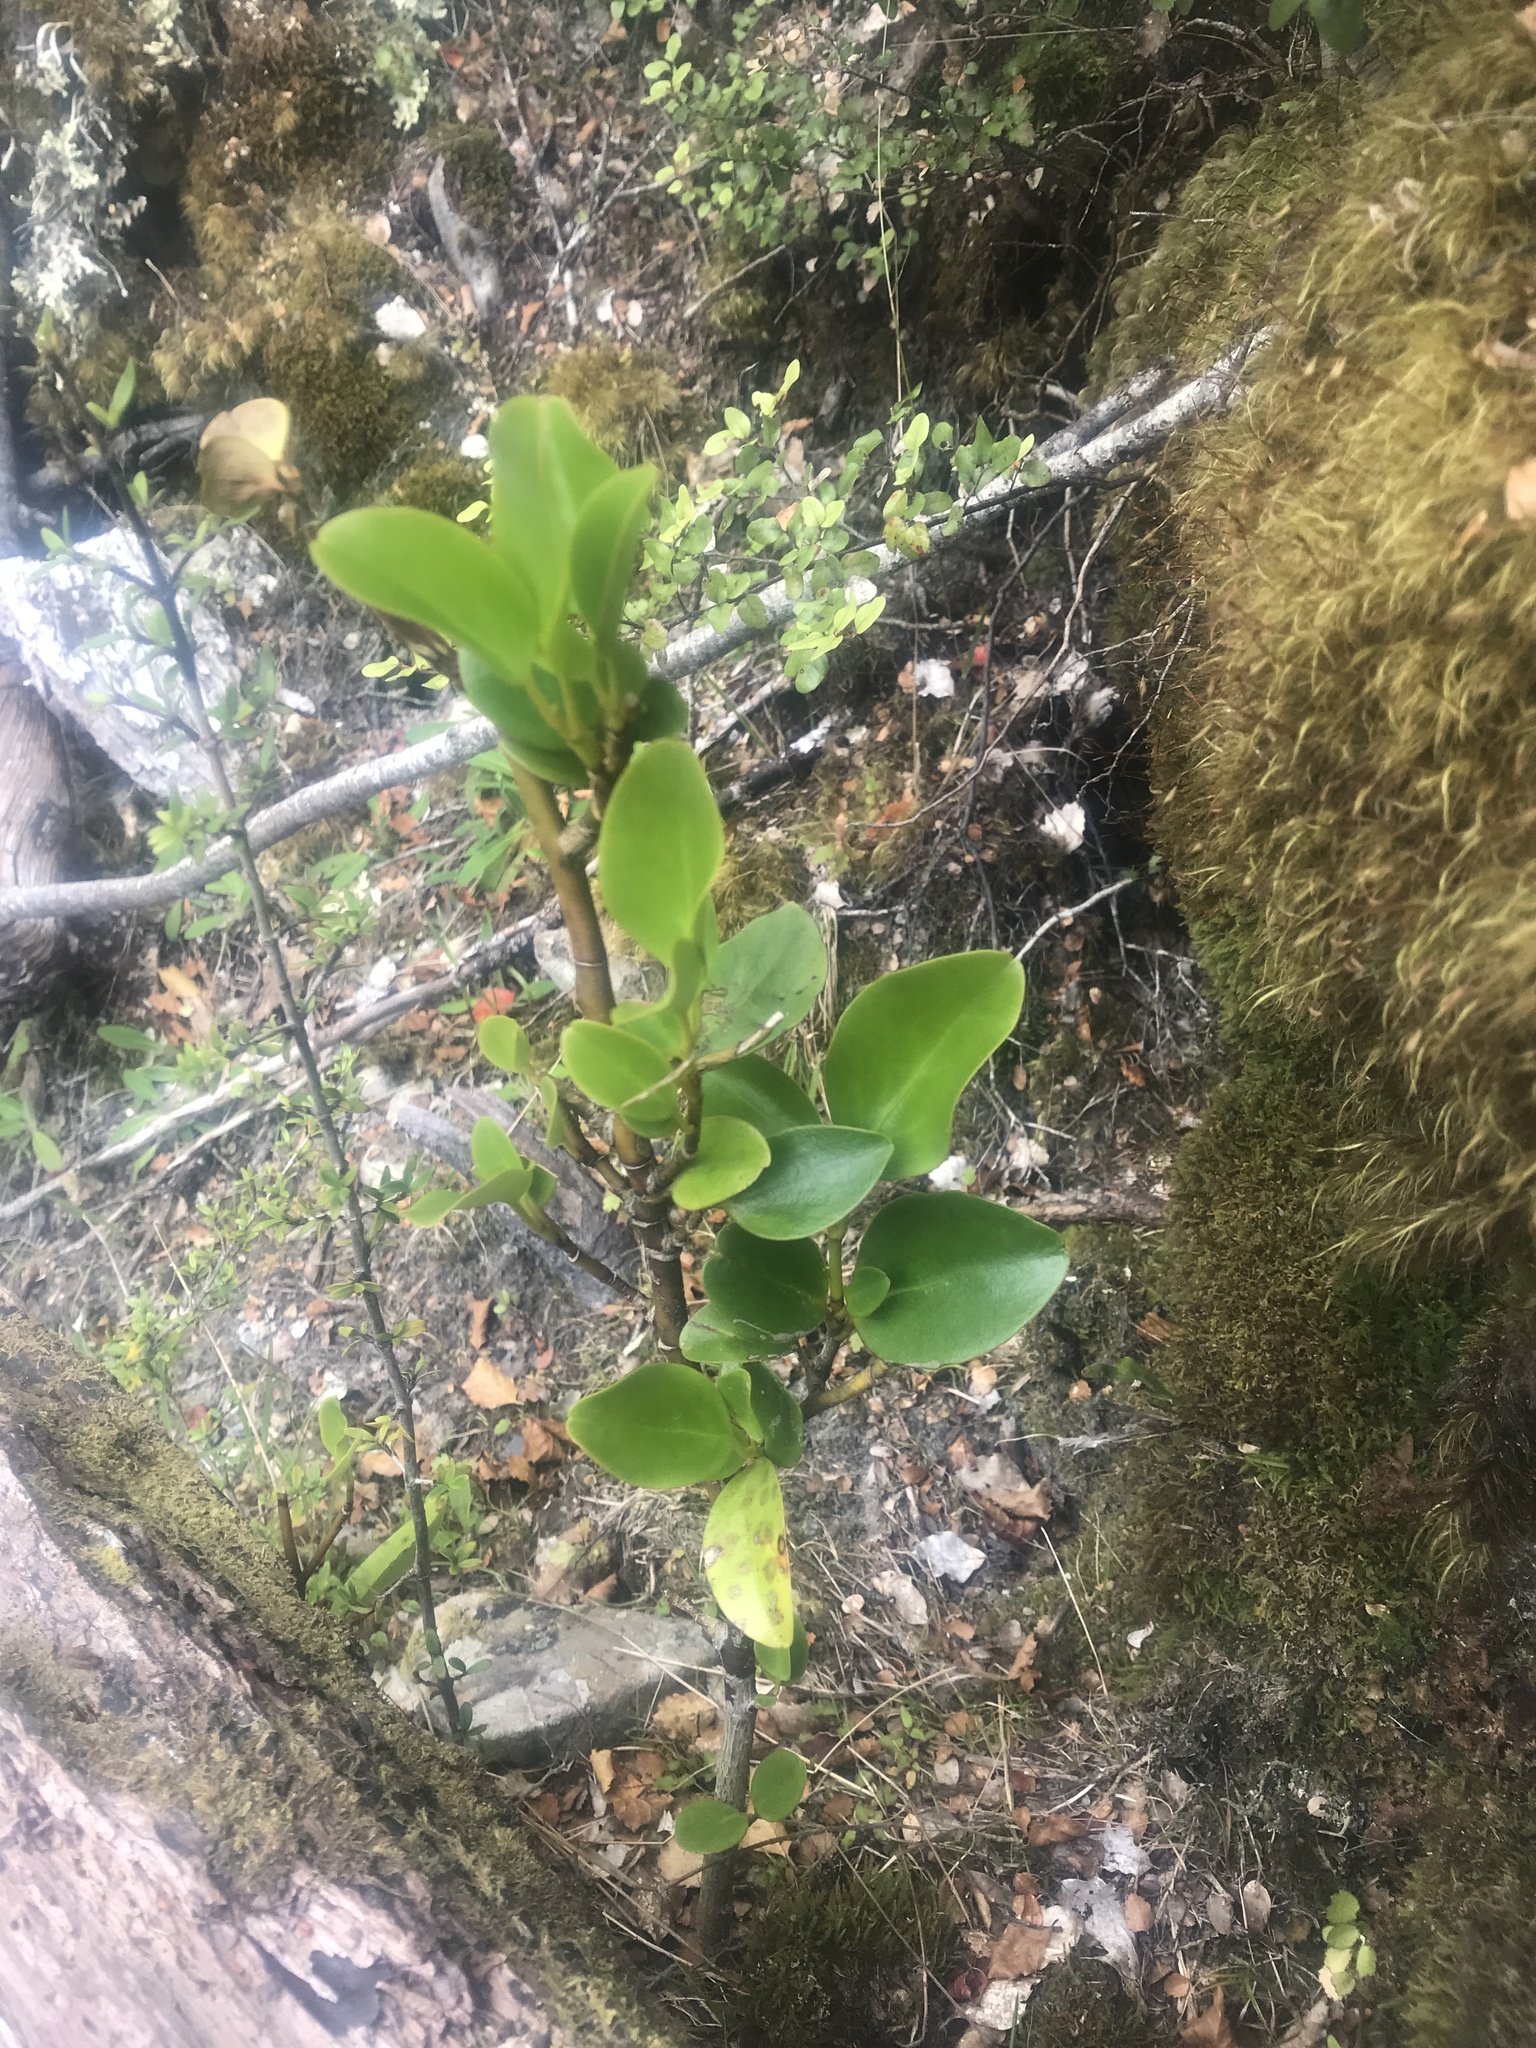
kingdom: Plantae
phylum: Tracheophyta
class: Magnoliopsida
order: Apiales
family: Griseliniaceae
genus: Griselinia
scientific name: Griselinia littoralis
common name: New zealand broadleaf
